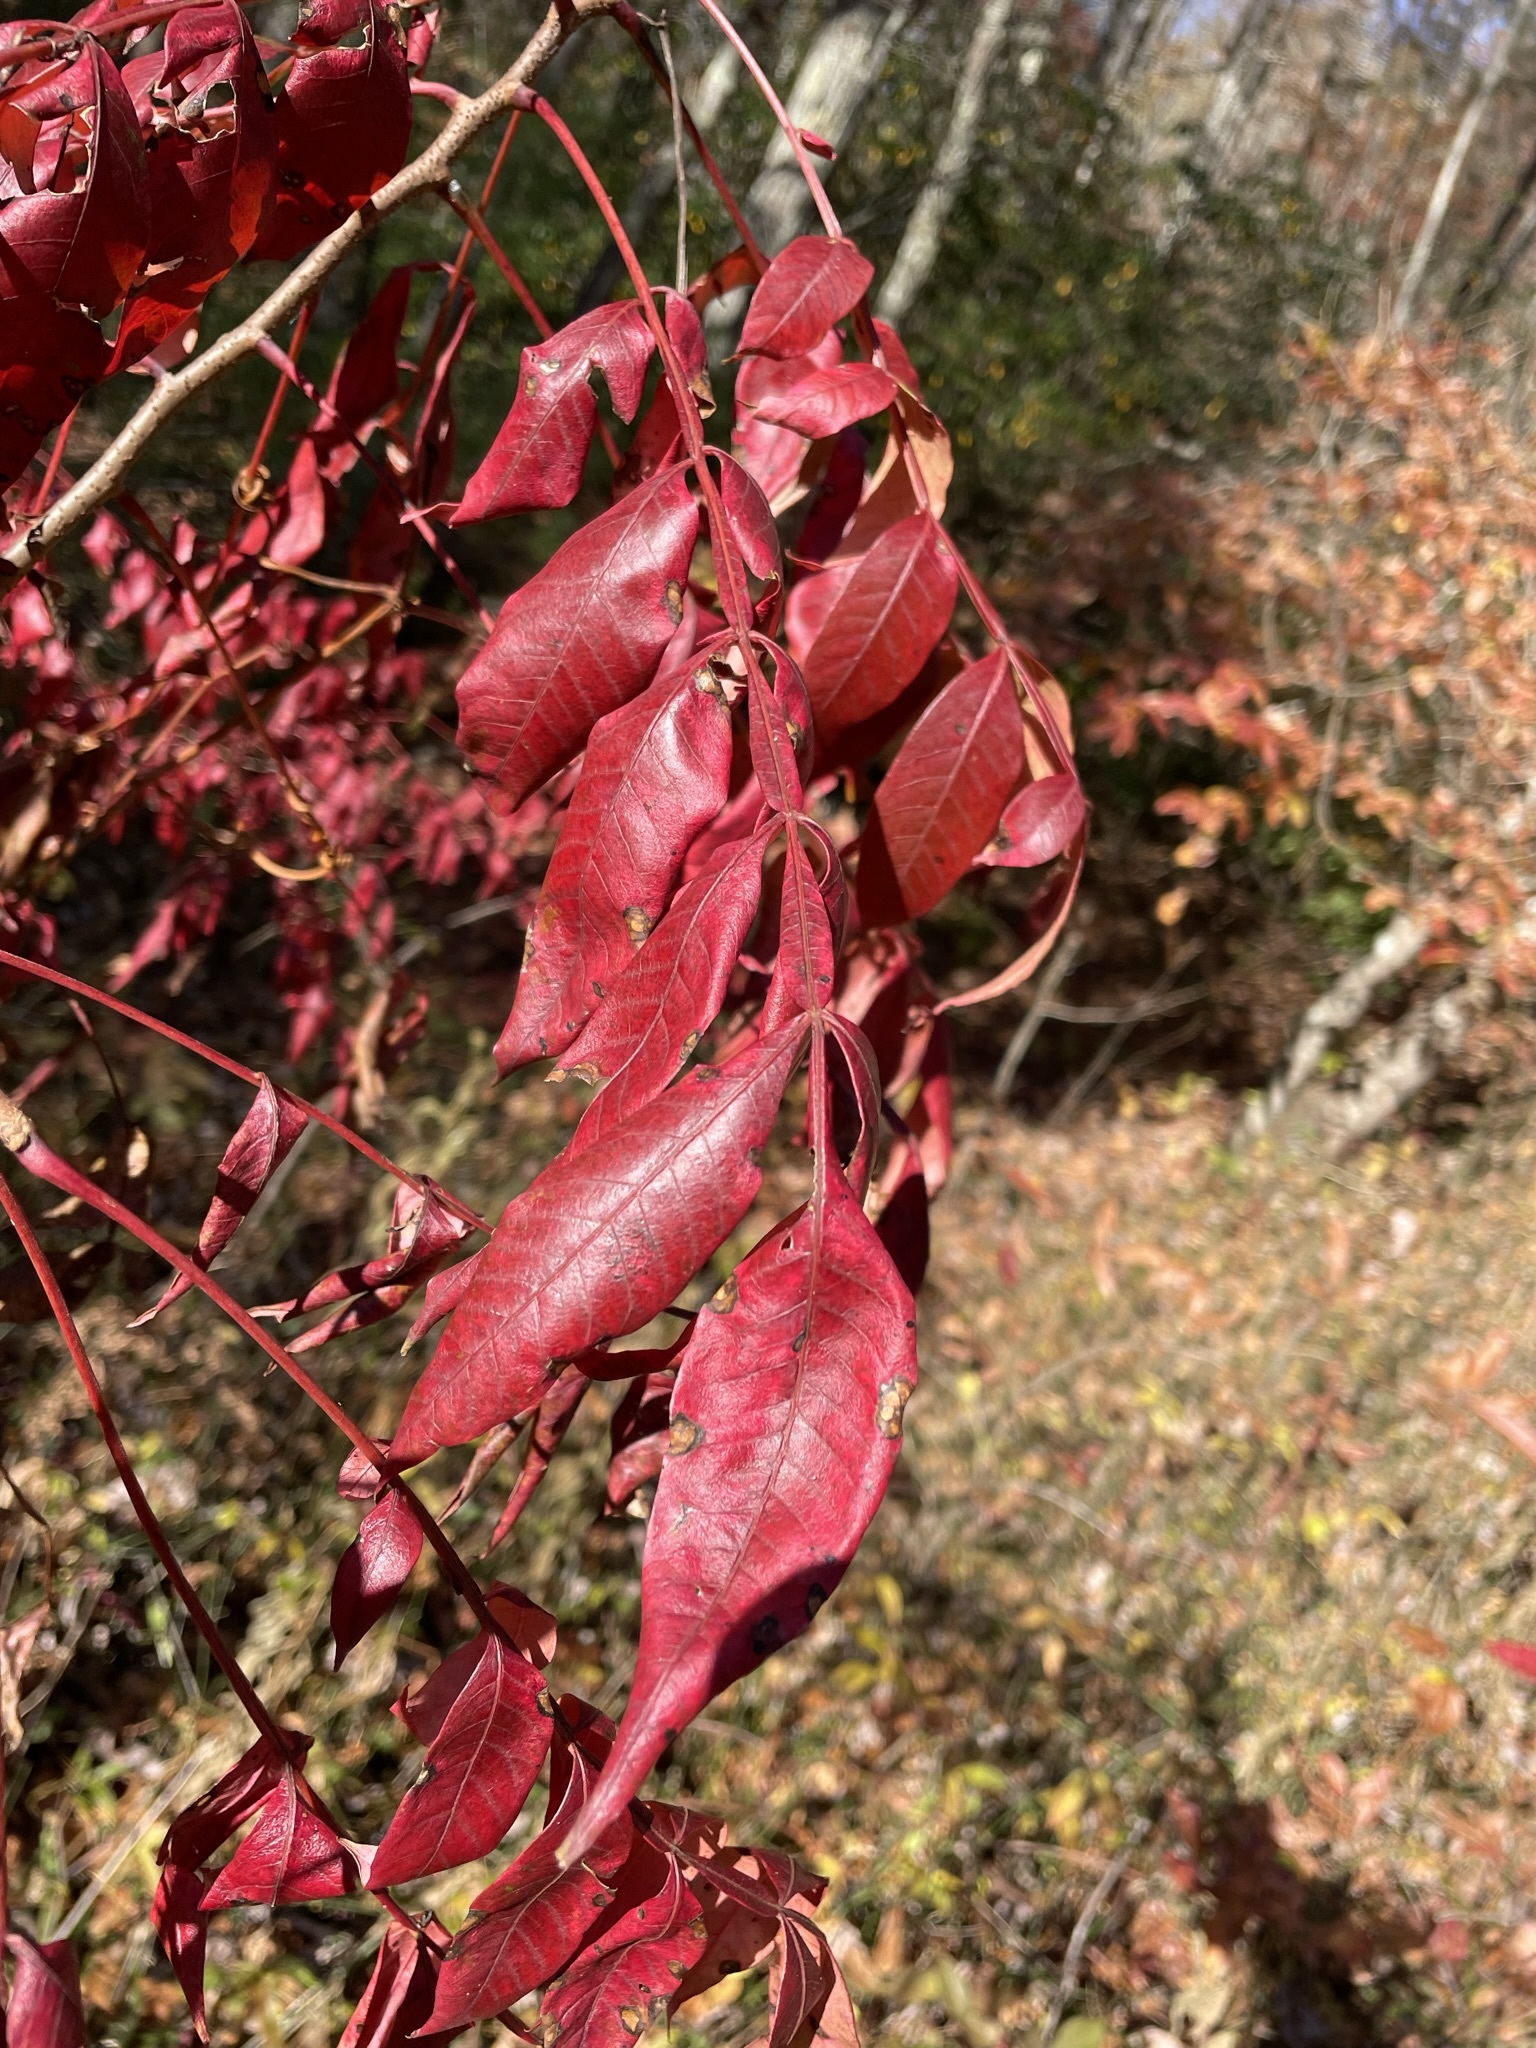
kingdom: Plantae
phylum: Tracheophyta
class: Magnoliopsida
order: Sapindales
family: Anacardiaceae
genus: Rhus
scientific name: Rhus copallina
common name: Shining sumac
